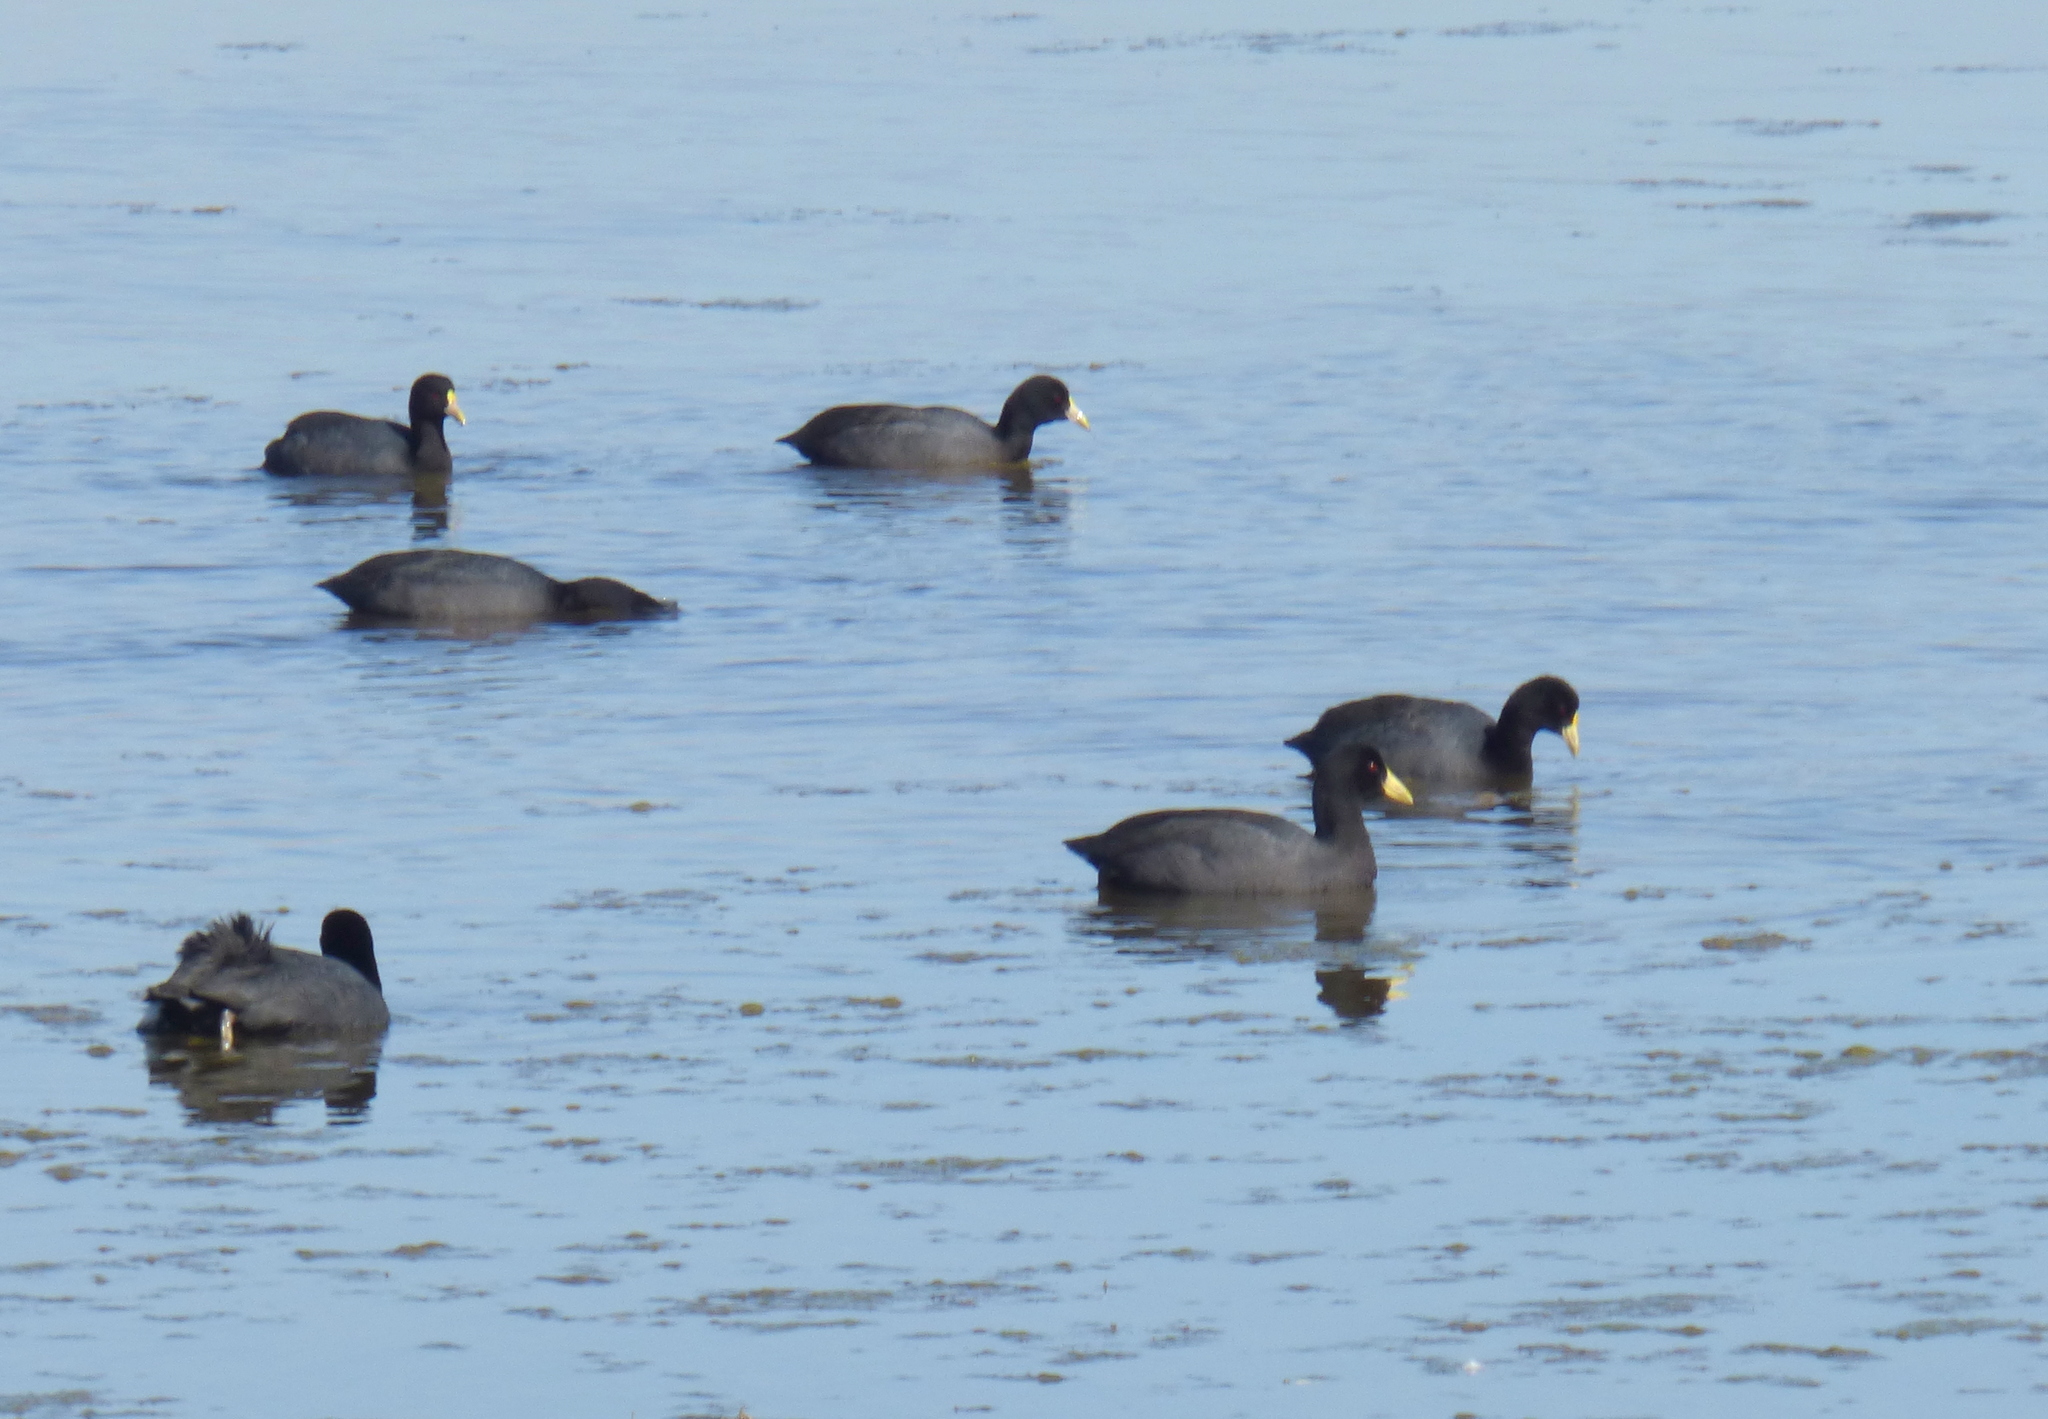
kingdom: Animalia
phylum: Chordata
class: Aves
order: Gruiformes
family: Rallidae
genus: Fulica
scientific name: Fulica leucoptera
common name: White-winged coot
